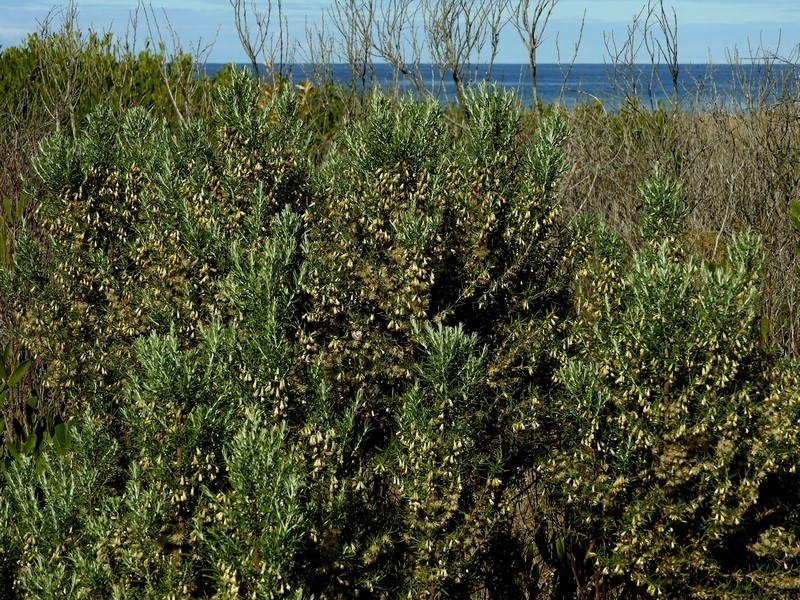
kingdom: Plantae
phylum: Tracheophyta
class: Magnoliopsida
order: Asterales
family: Asteraceae
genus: Olearia
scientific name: Olearia axillaris
